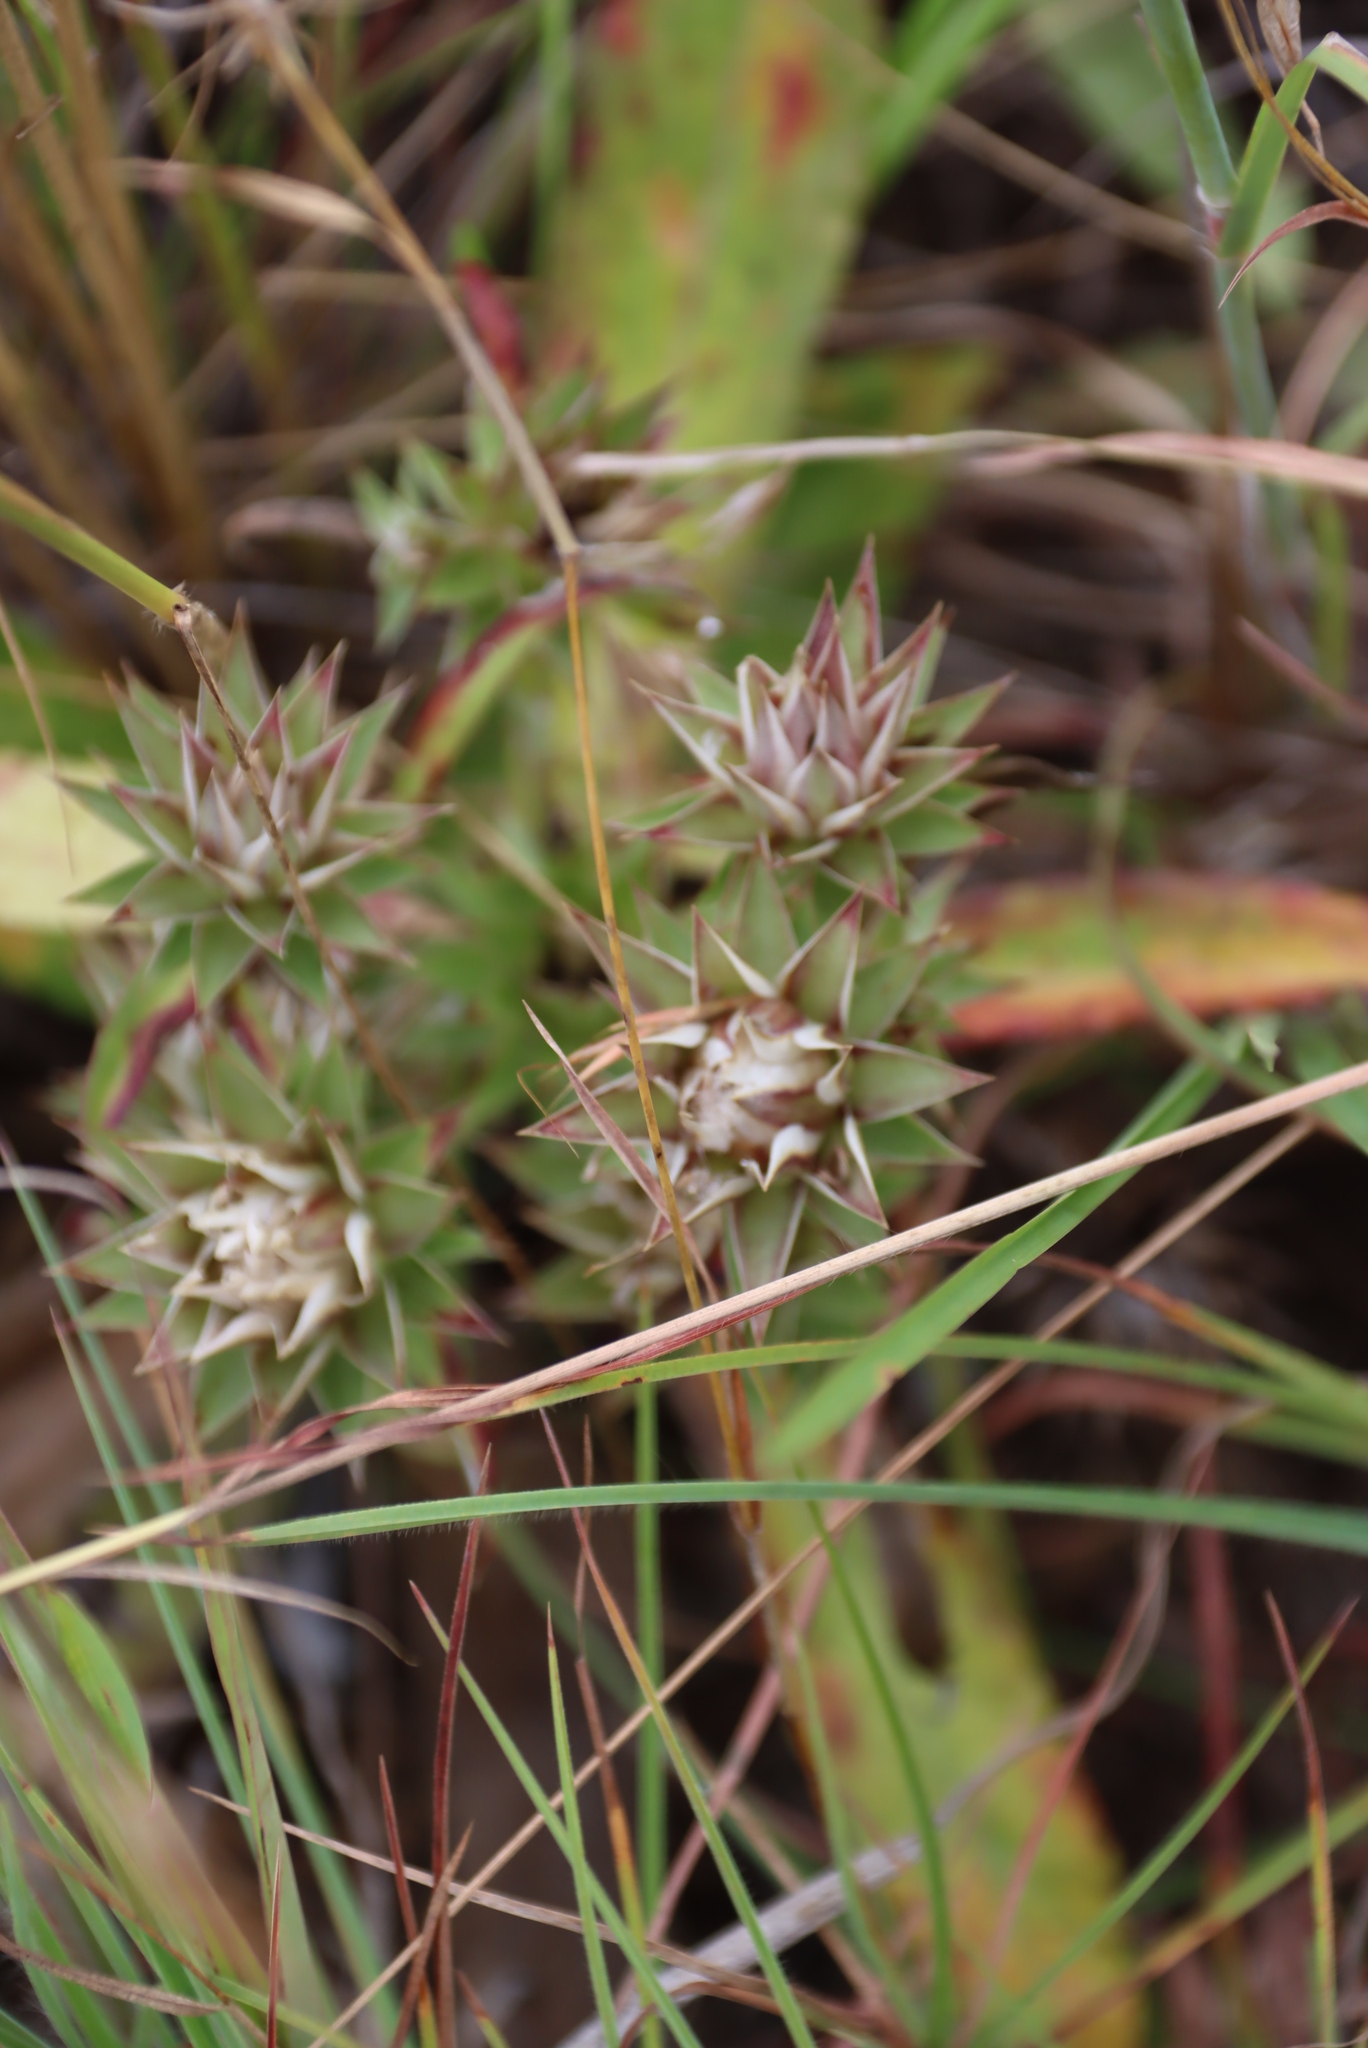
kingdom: Plantae
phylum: Tracheophyta
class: Magnoliopsida
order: Asterales
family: Asteraceae
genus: Macledium
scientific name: Macledium zeyheri
